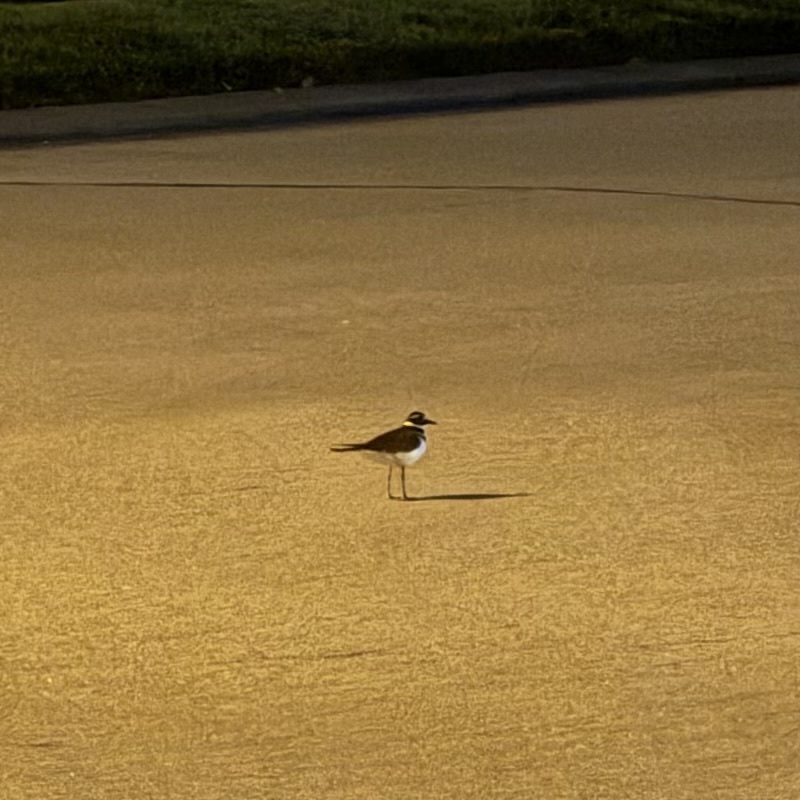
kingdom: Animalia
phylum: Chordata
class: Aves
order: Charadriiformes
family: Charadriidae
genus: Charadrius
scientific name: Charadrius vociferus
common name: Killdeer
